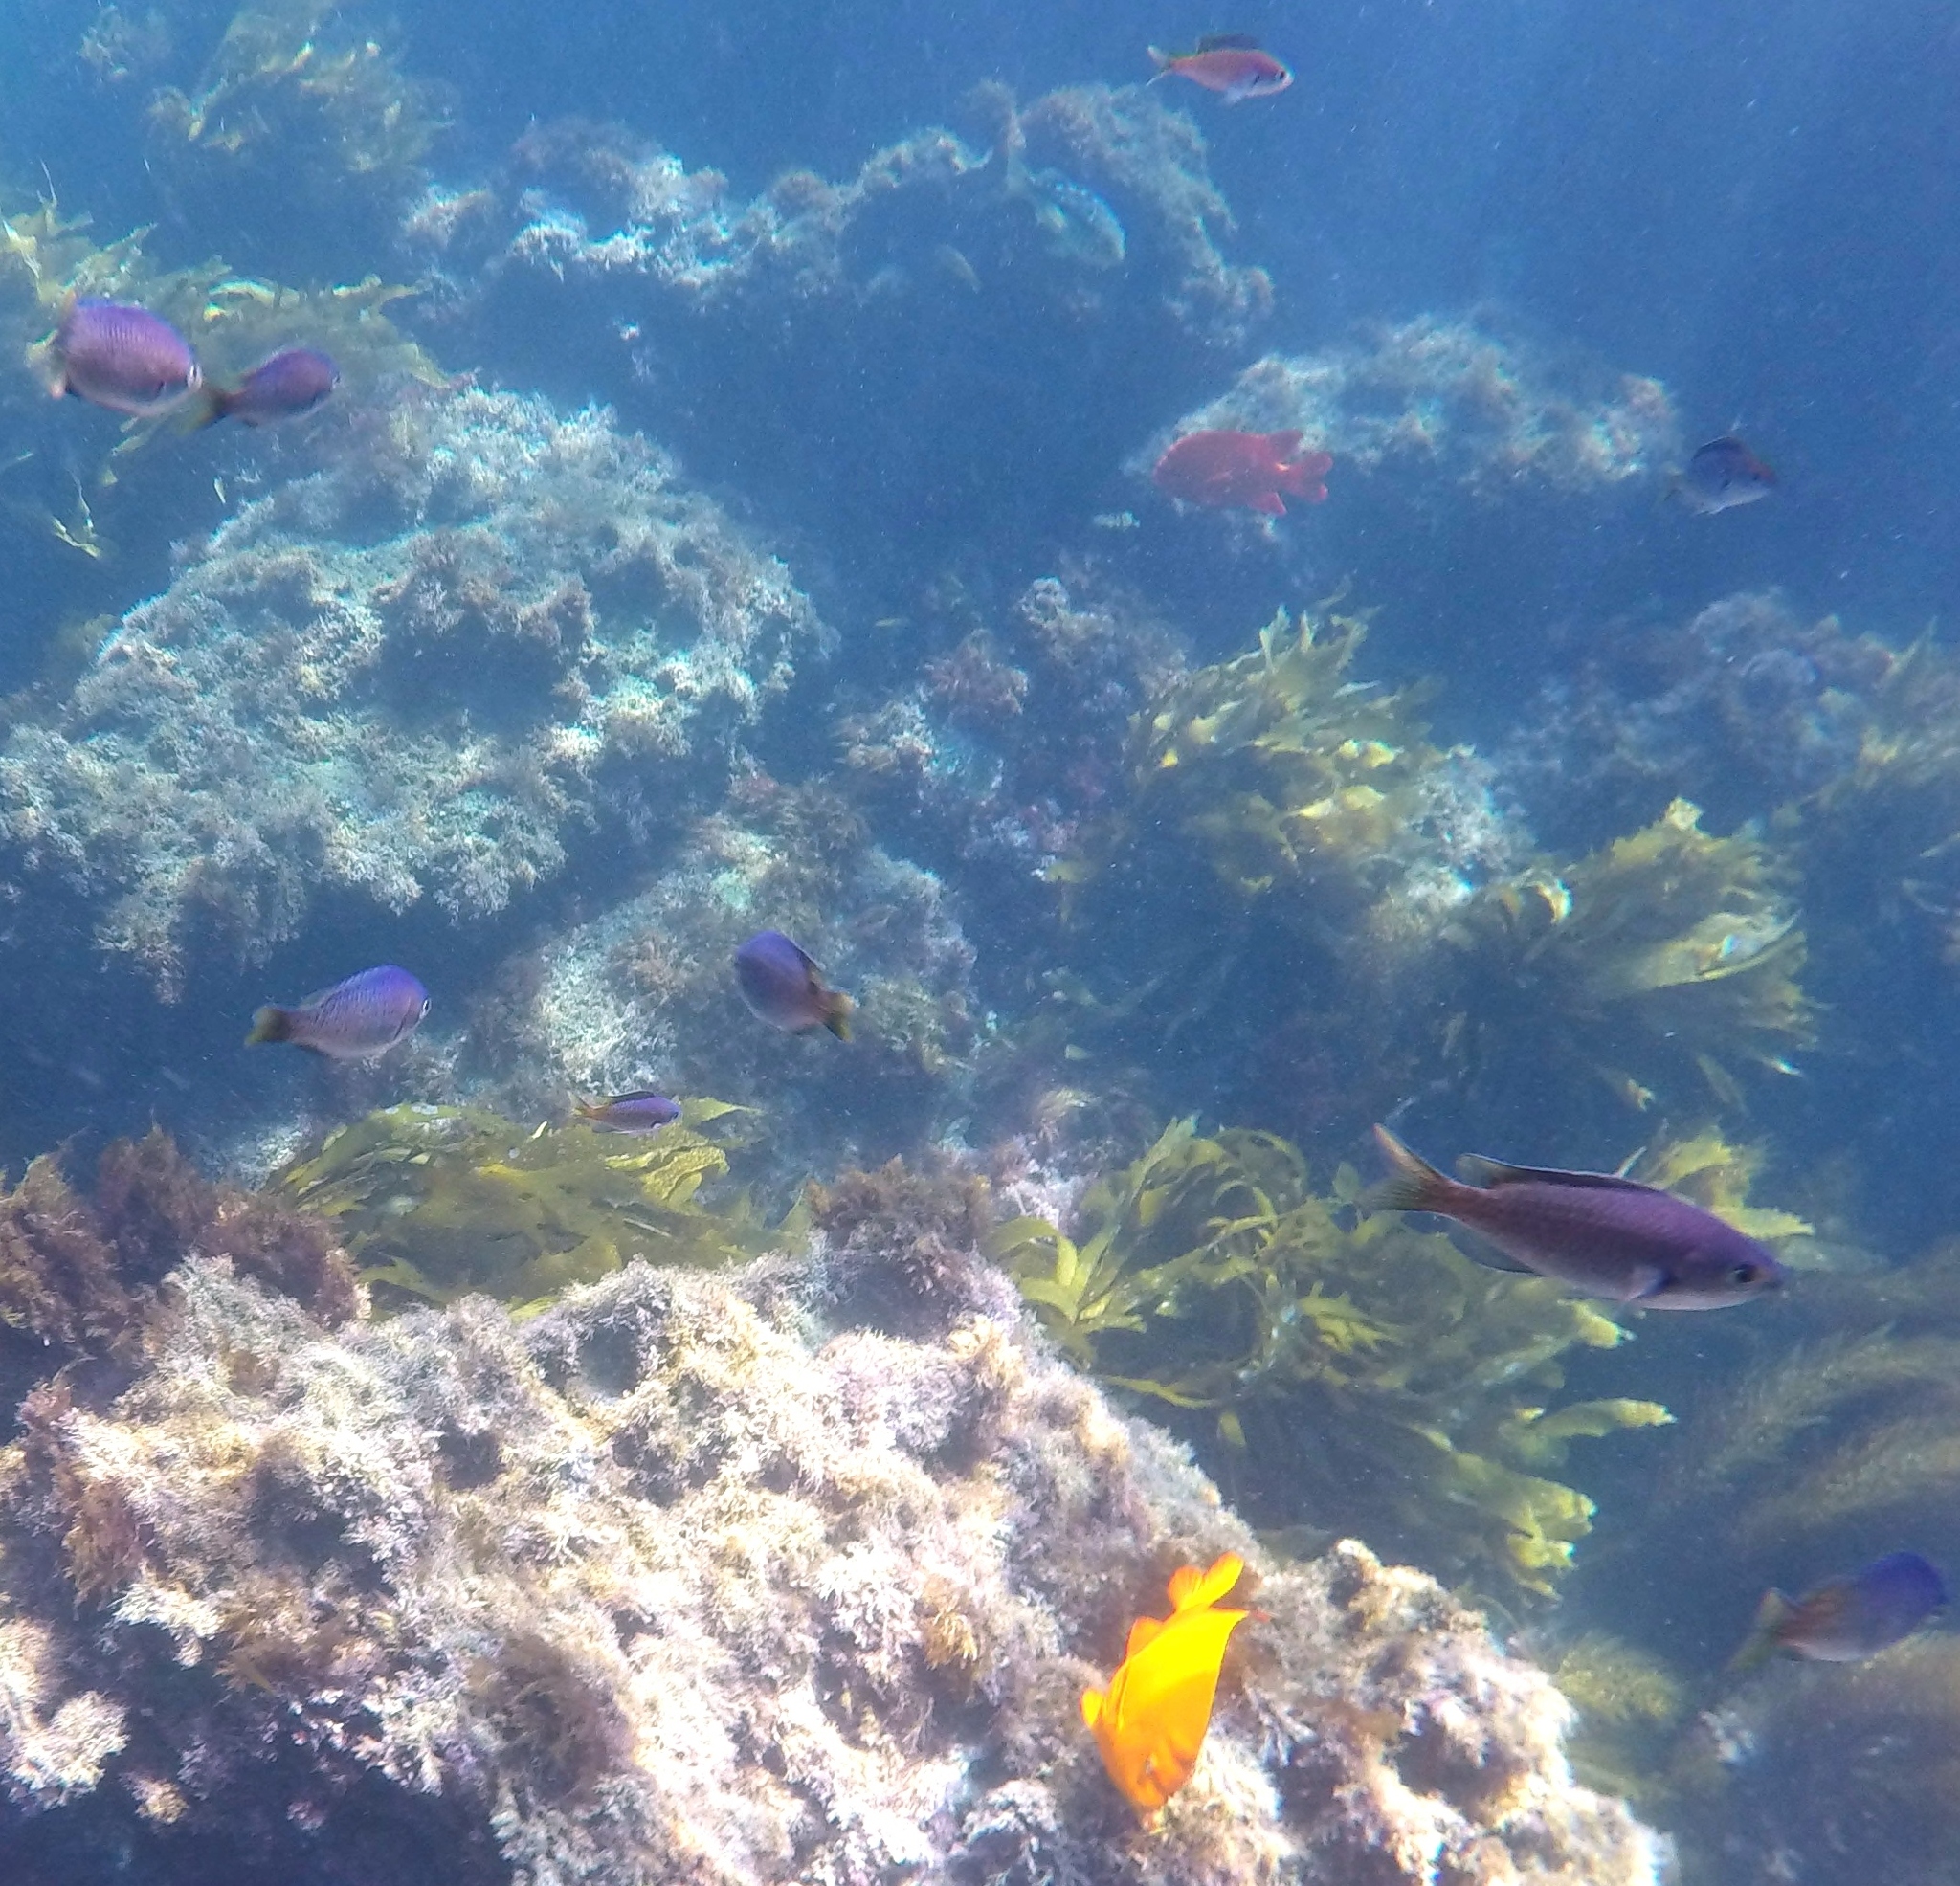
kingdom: Animalia
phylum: Chordata
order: Perciformes
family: Pomacentridae
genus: Chromis
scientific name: Chromis punctipinnis
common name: Blacksmith
